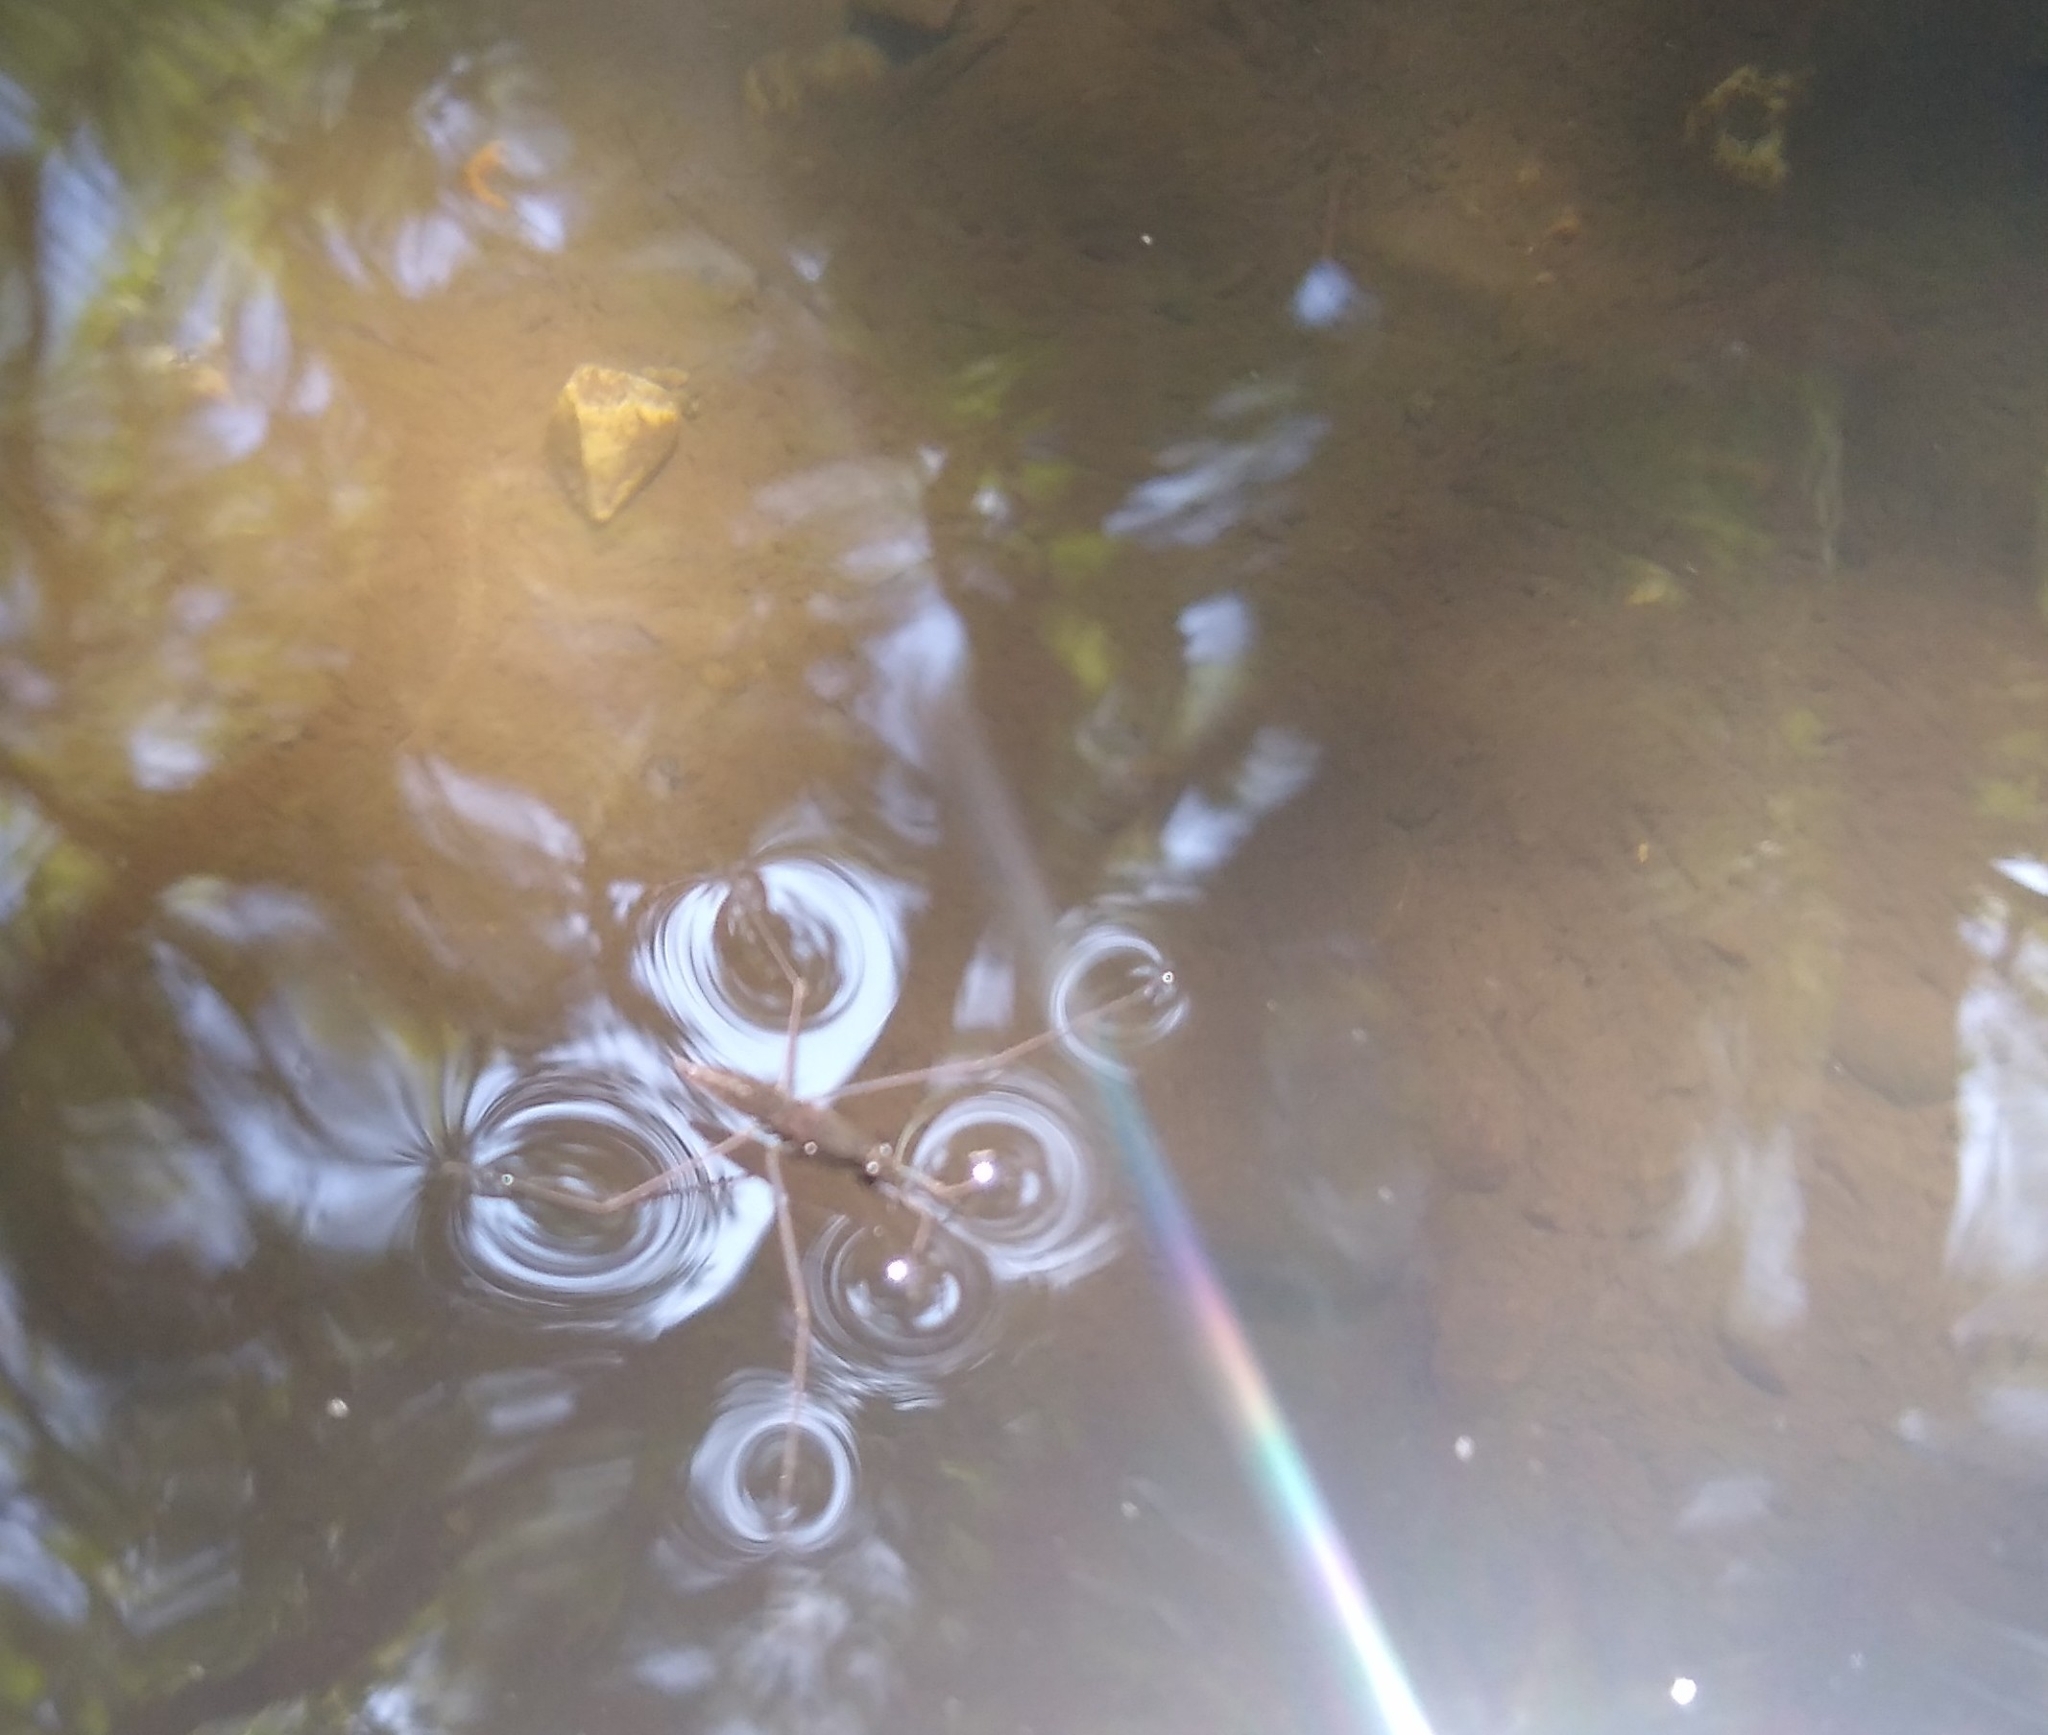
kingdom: Animalia
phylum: Arthropoda
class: Insecta
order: Hemiptera
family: Gerridae
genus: Aquarius
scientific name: Aquarius remigis
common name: Common water strider
